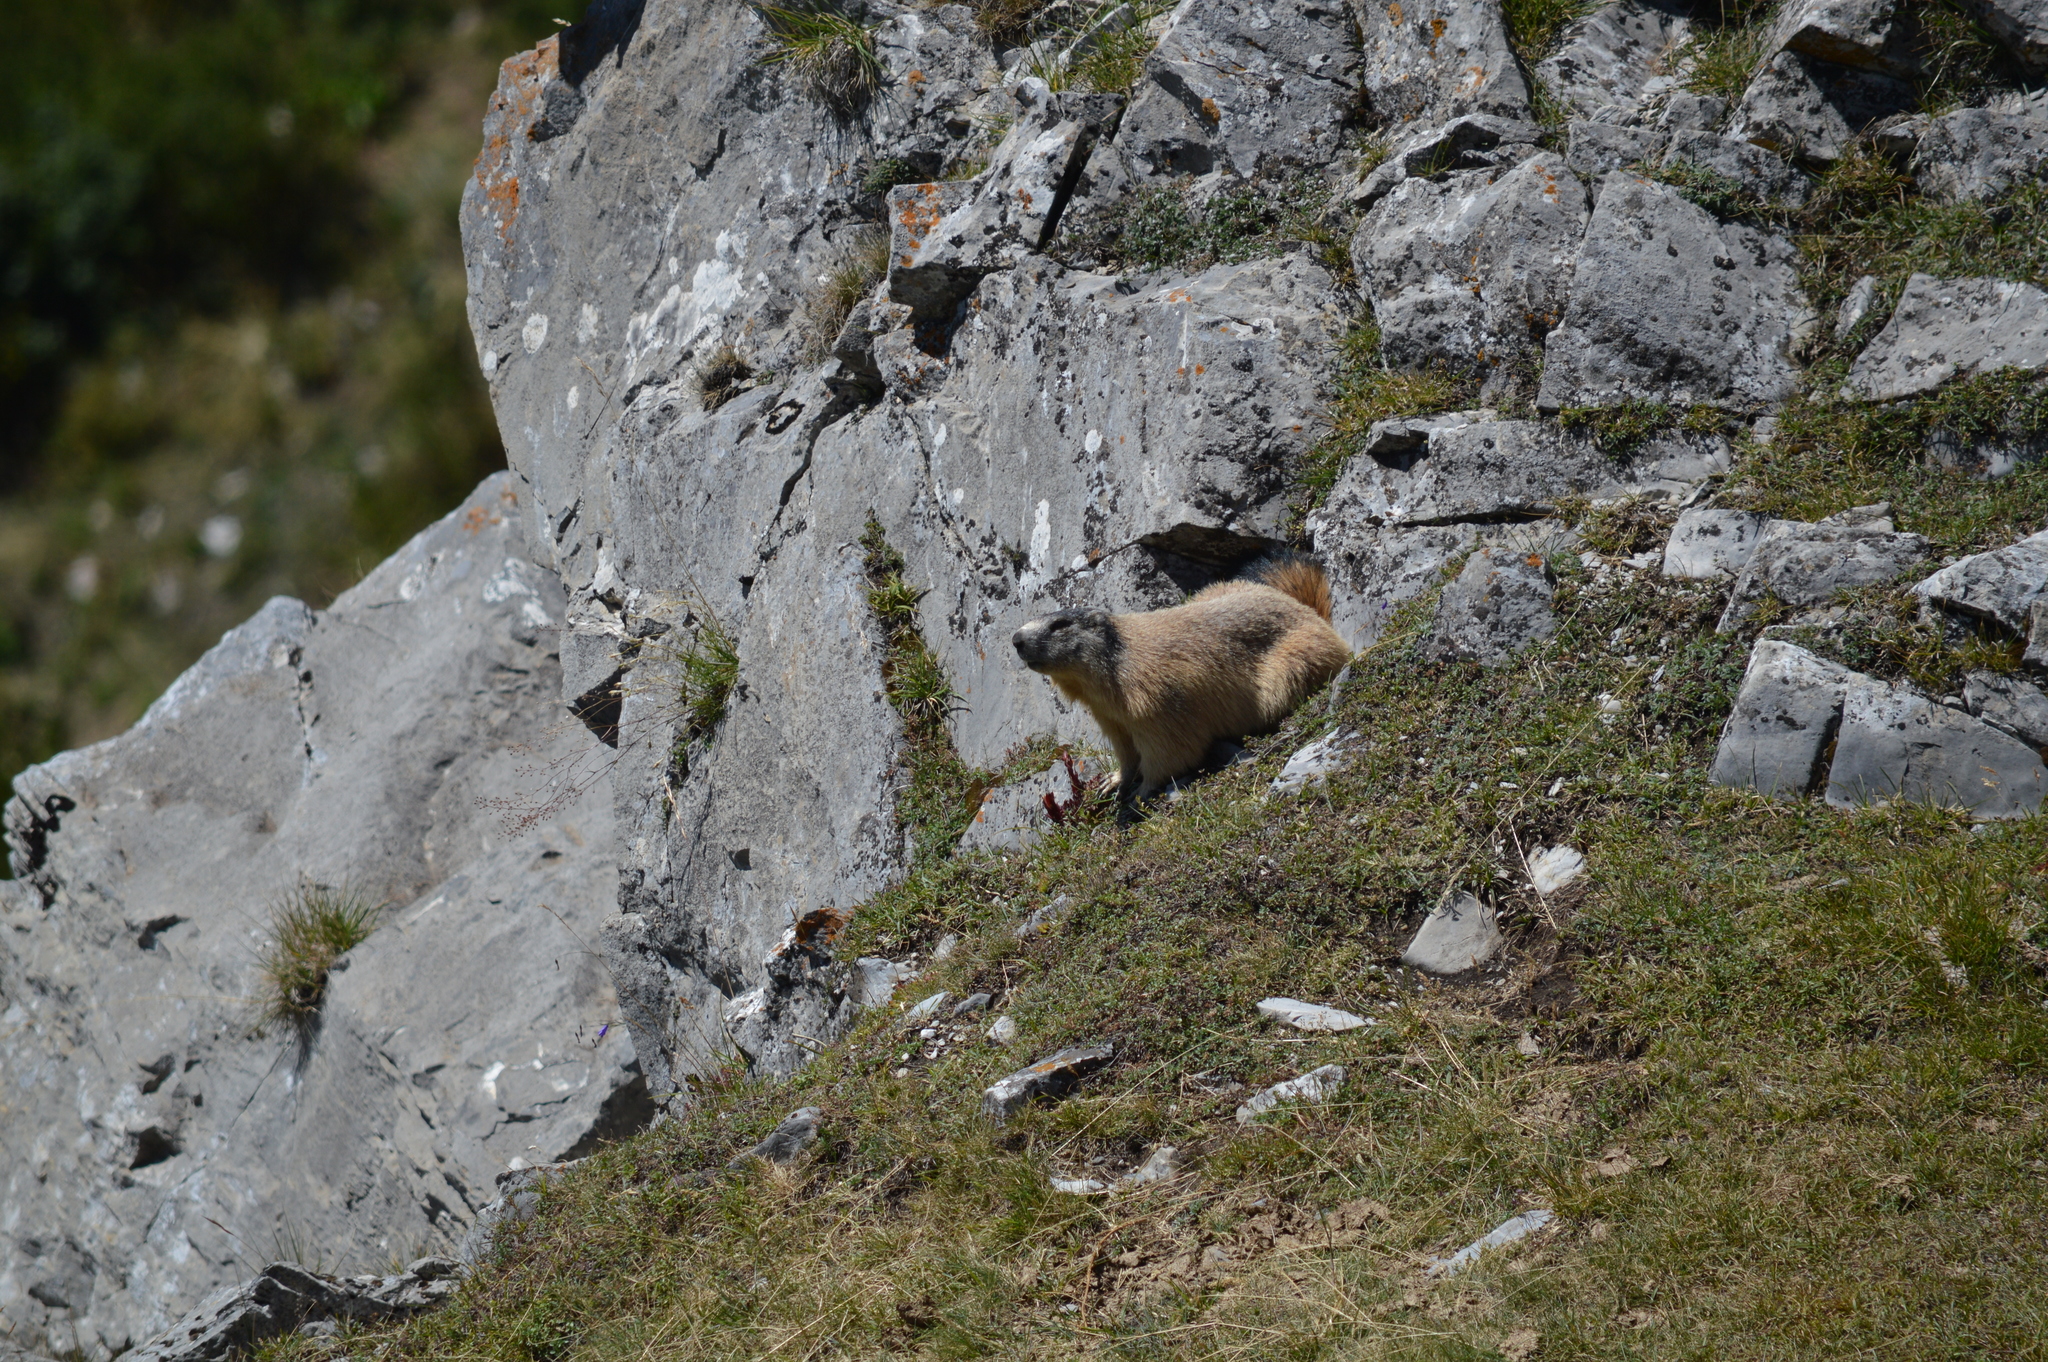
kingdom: Animalia
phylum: Chordata
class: Mammalia
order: Rodentia
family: Sciuridae
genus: Marmota
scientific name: Marmota marmota
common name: Alpine marmot
